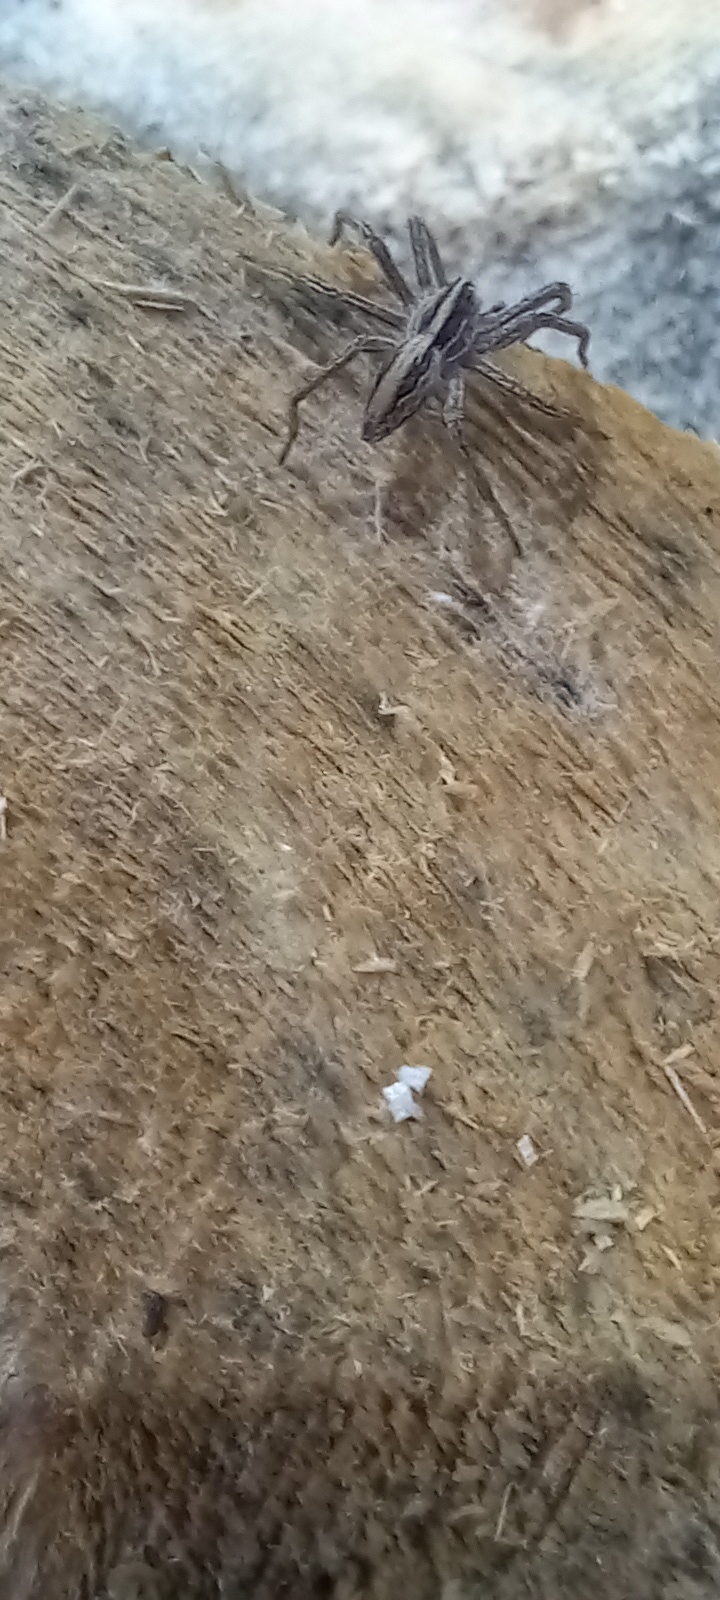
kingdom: Animalia
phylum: Arthropoda
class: Arachnida
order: Araneae
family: Pisauridae
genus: Pisaura
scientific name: Pisaura mirabilis
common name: Tent spider
